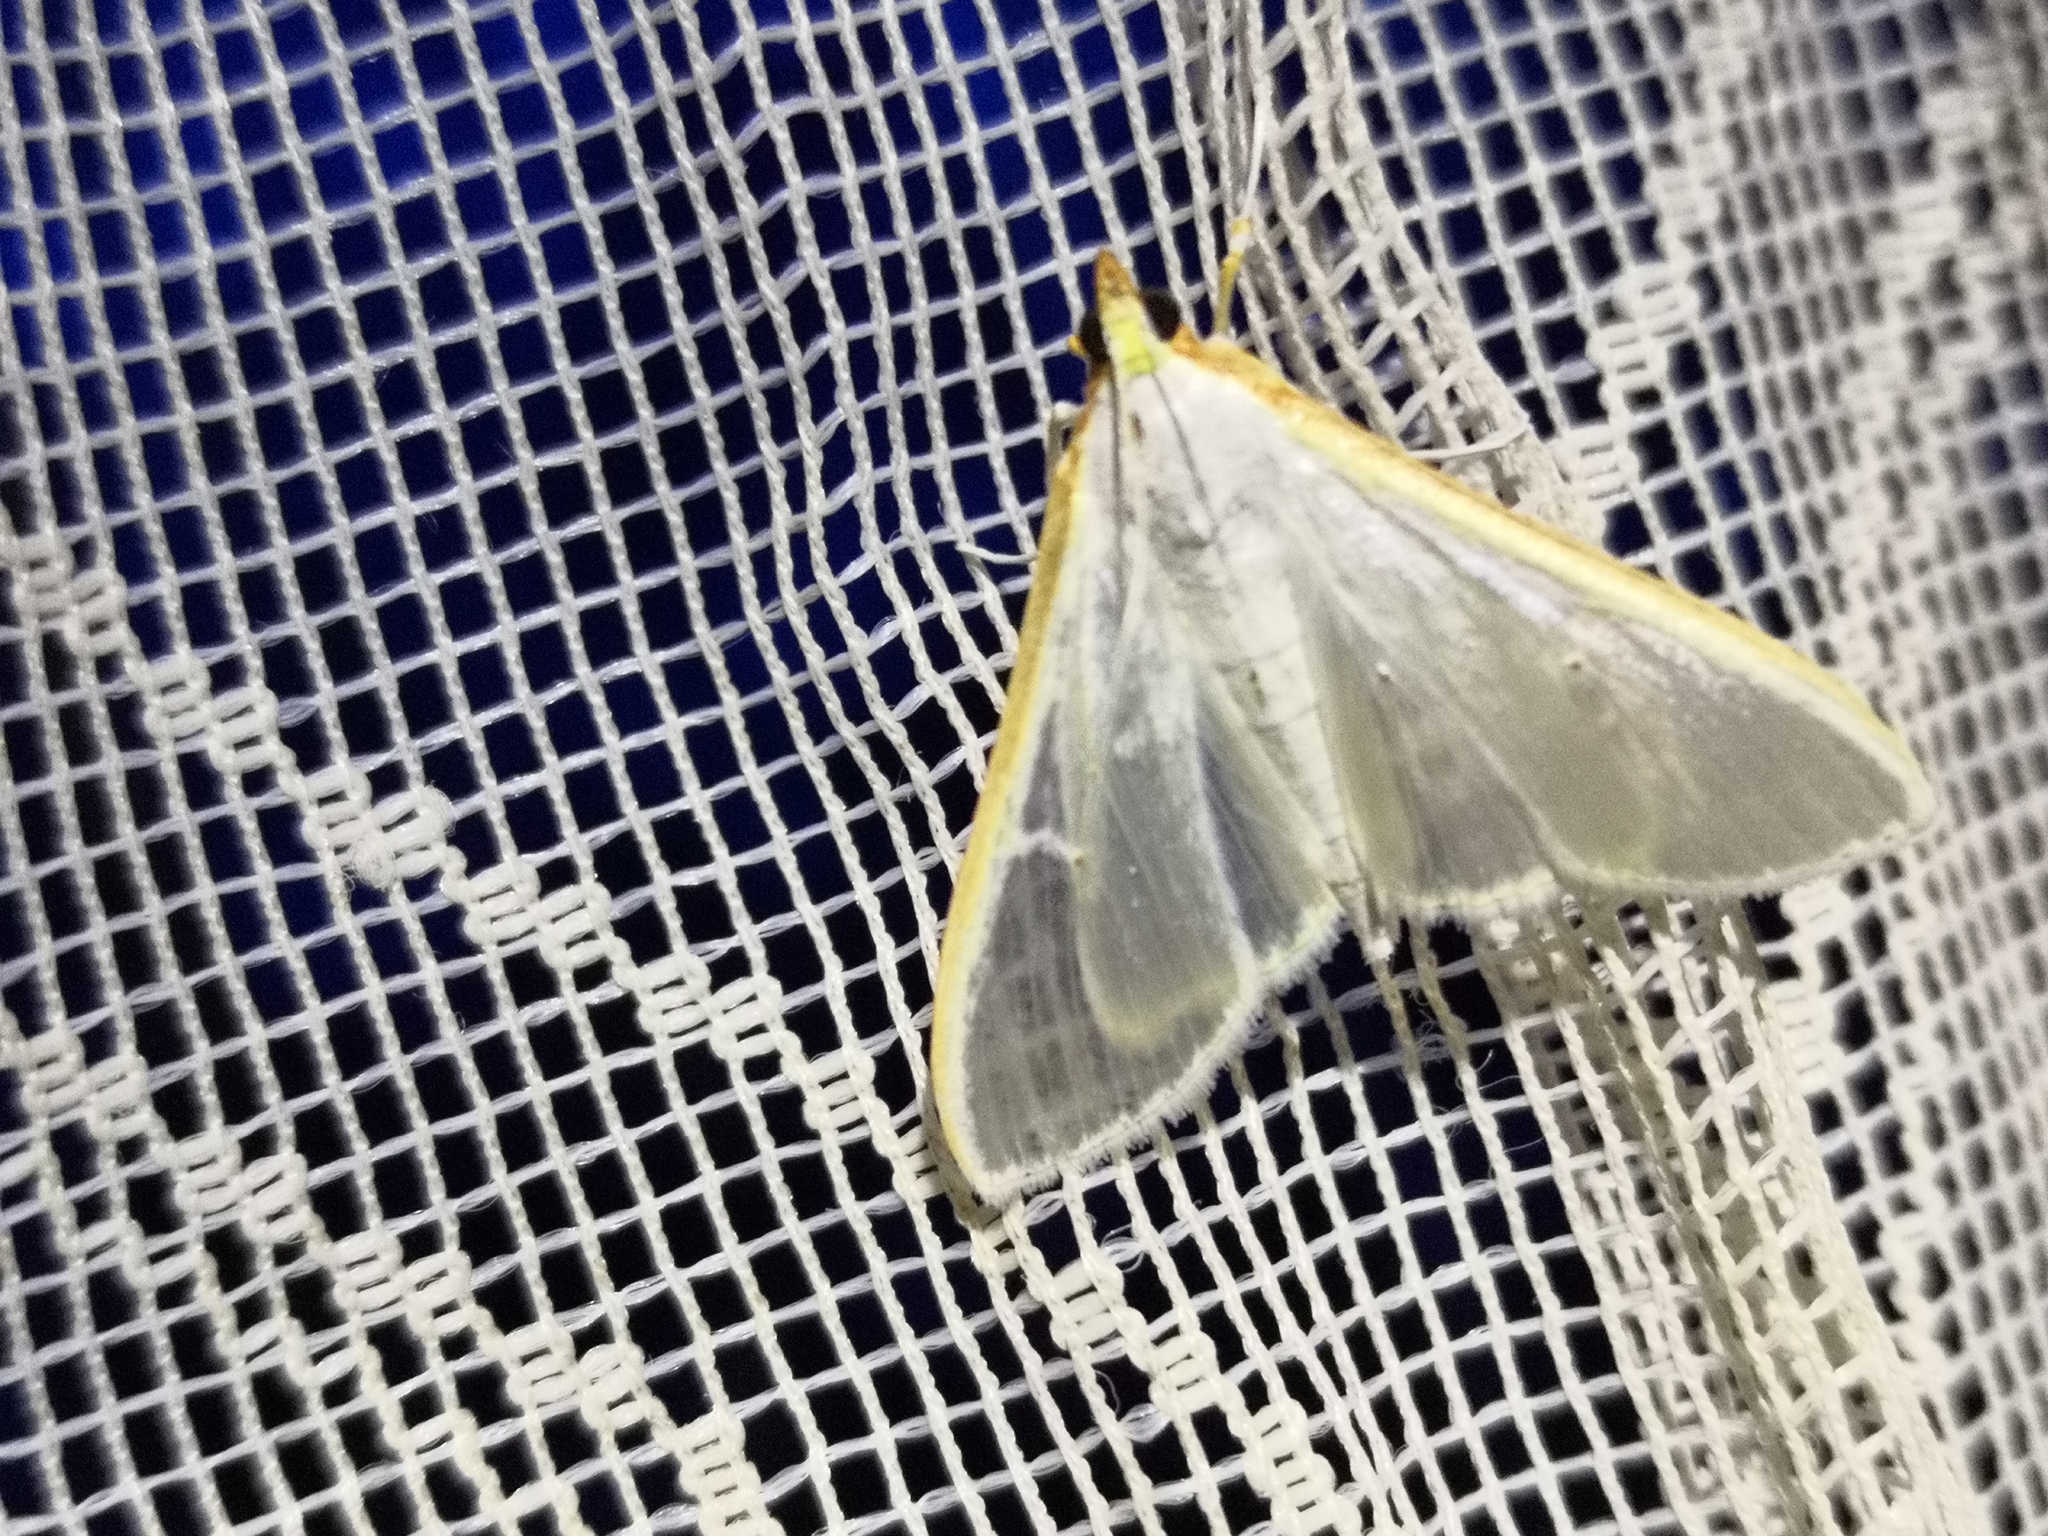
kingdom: Animalia
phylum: Arthropoda
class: Insecta
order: Lepidoptera
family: Crambidae
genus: Palpita
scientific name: Palpita vitrealis
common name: Olive-tree pearl
